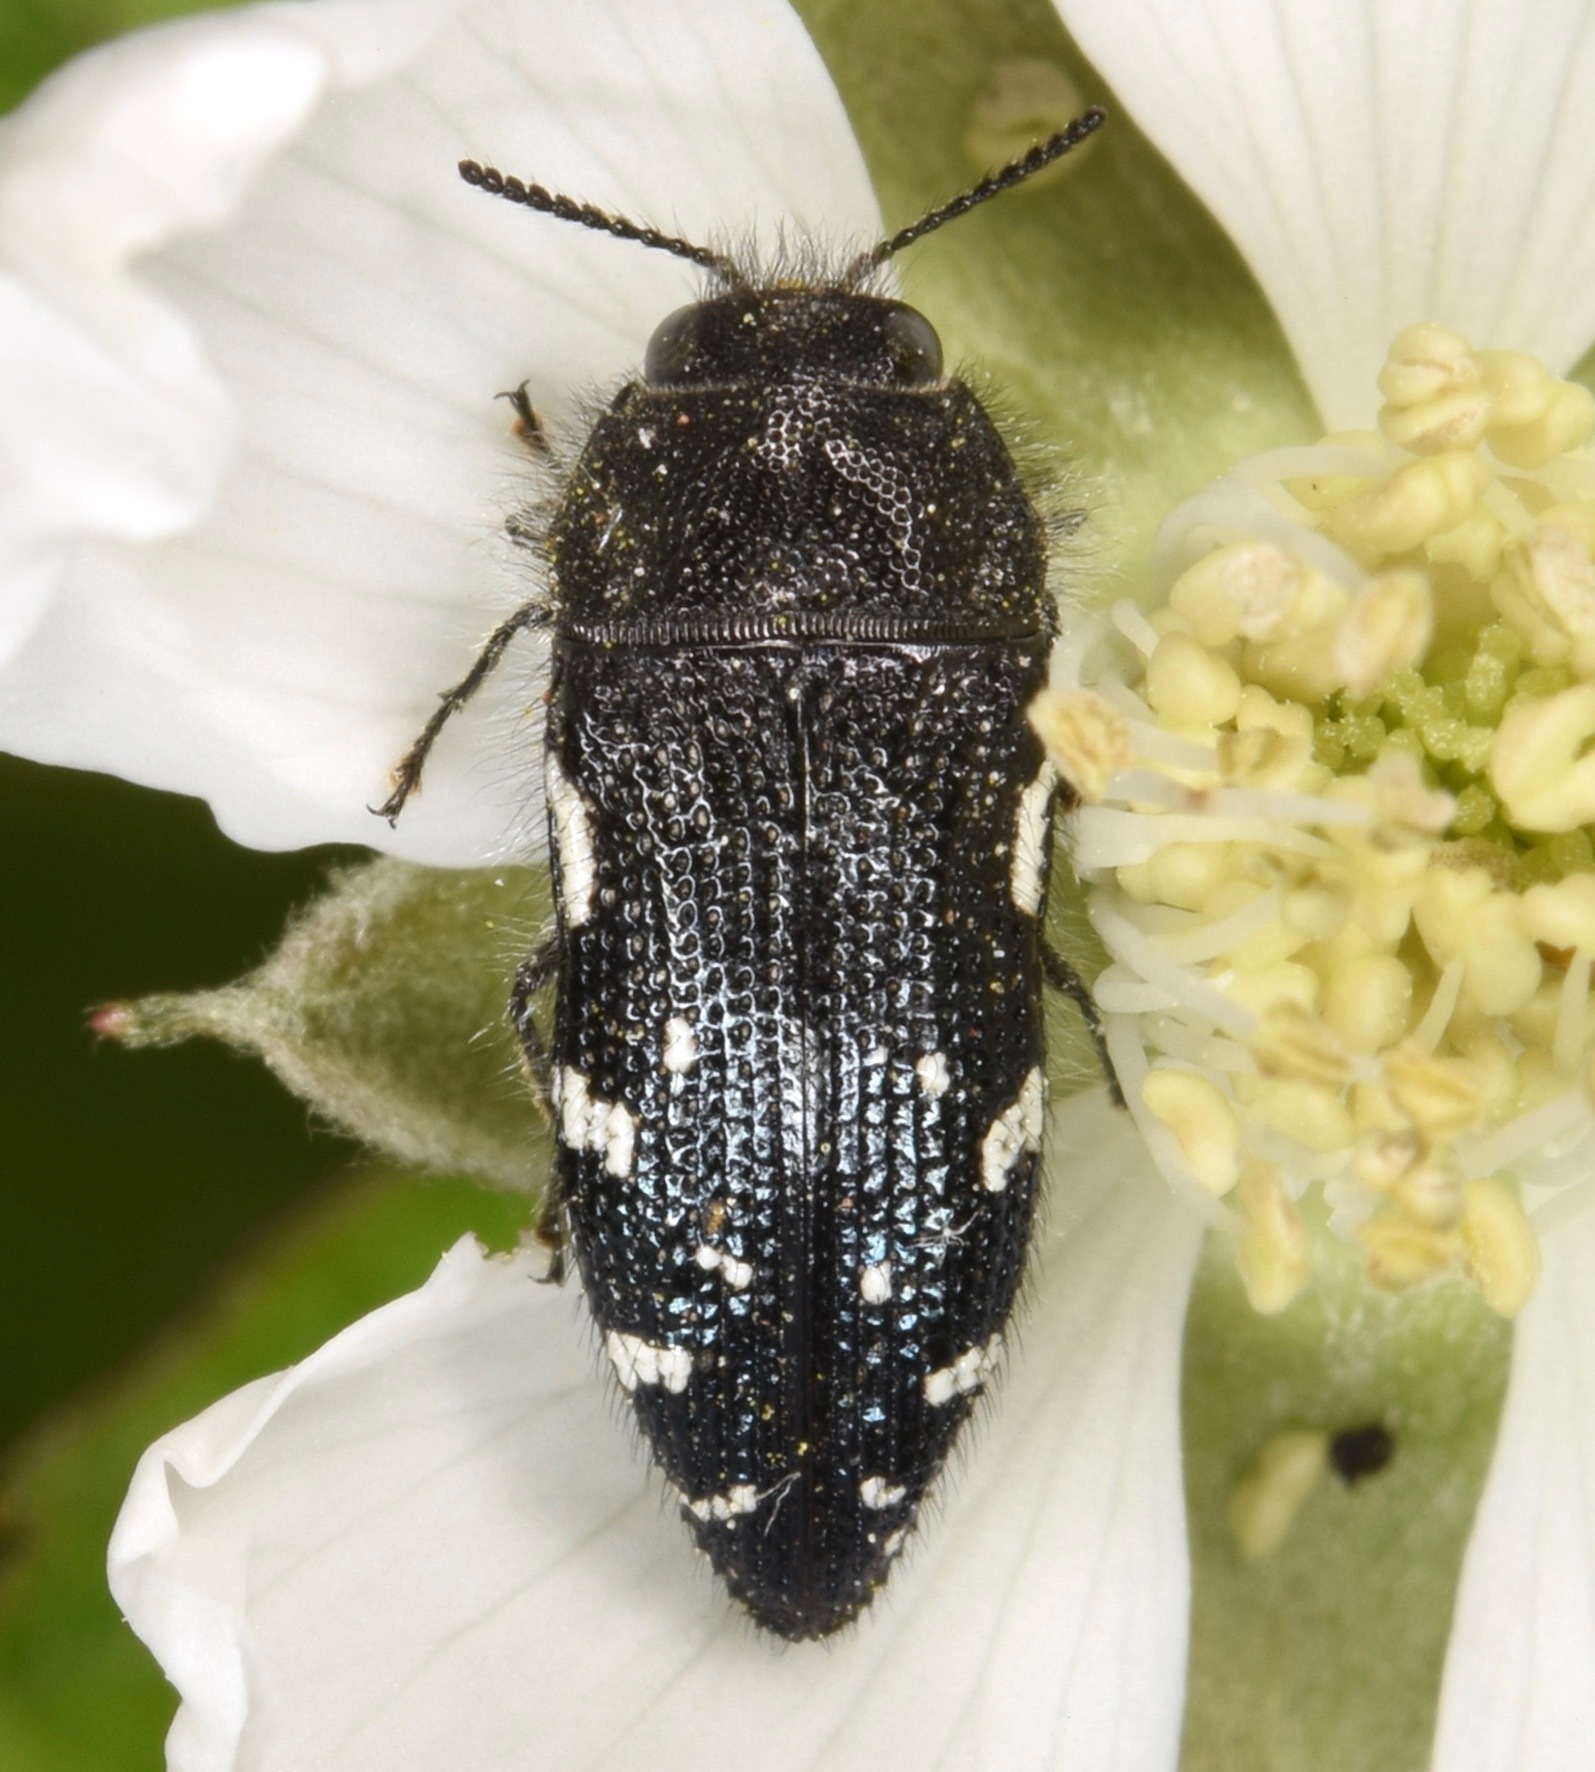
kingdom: Animalia
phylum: Arthropoda
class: Insecta
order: Coleoptera
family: Buprestidae
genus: Acmaeodera
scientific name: Acmaeodera ornata
